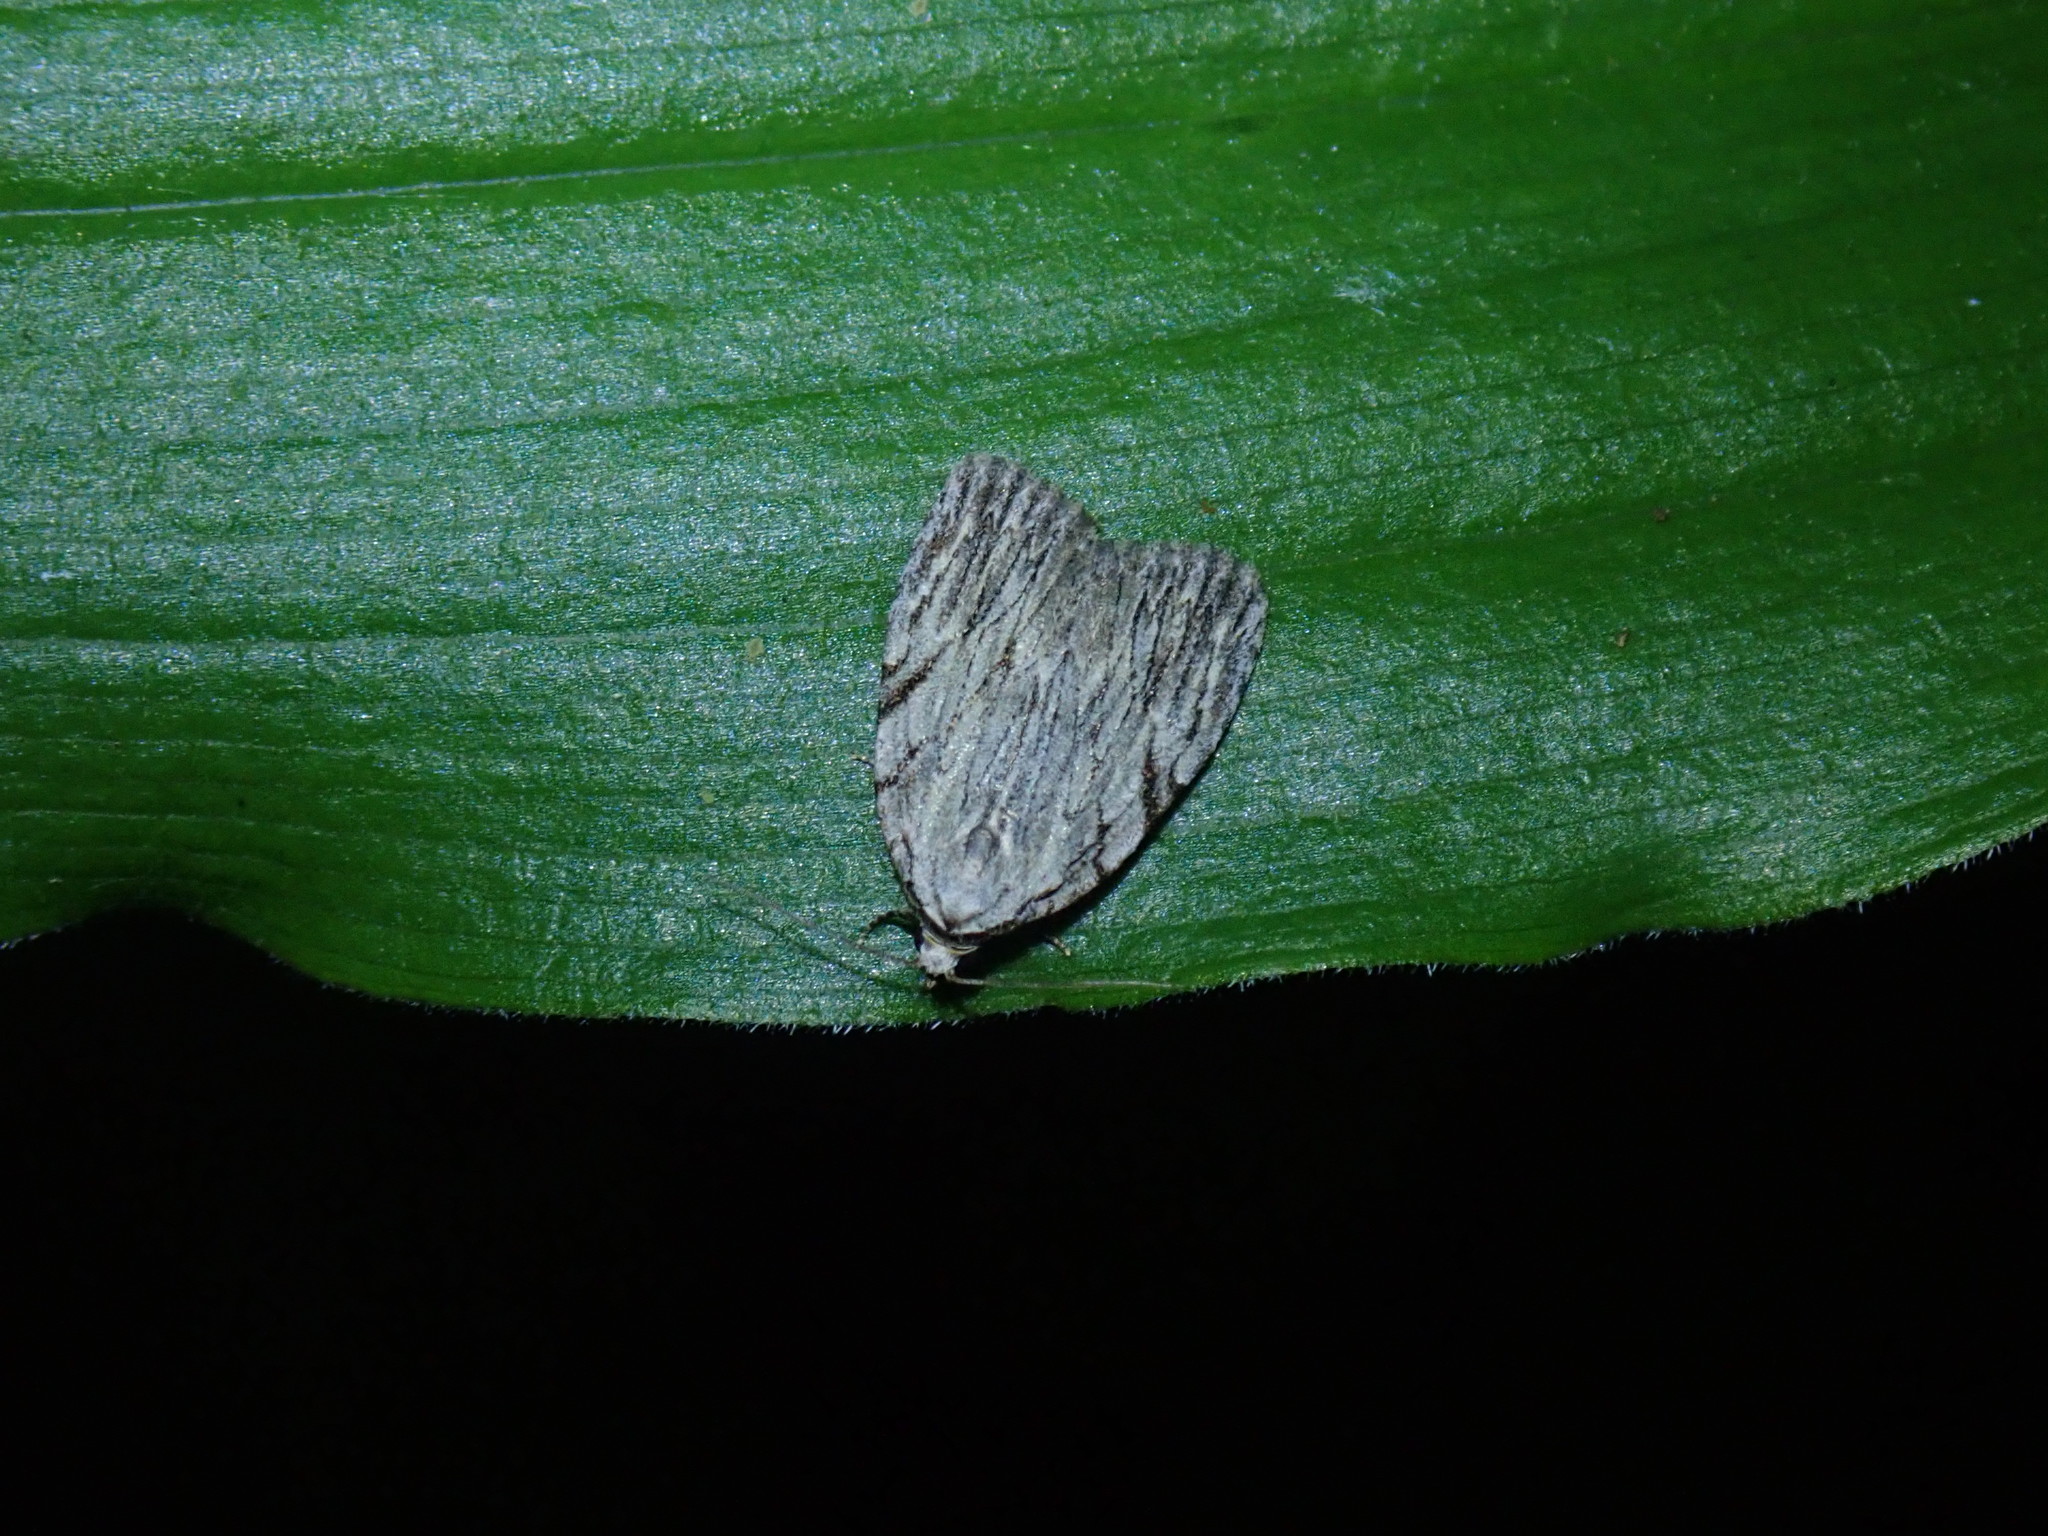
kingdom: Animalia
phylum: Arthropoda
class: Insecta
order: Lepidoptera
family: Noctuidae
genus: Balsa
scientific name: Balsa tristrigella
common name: Three-lined balsa moth
